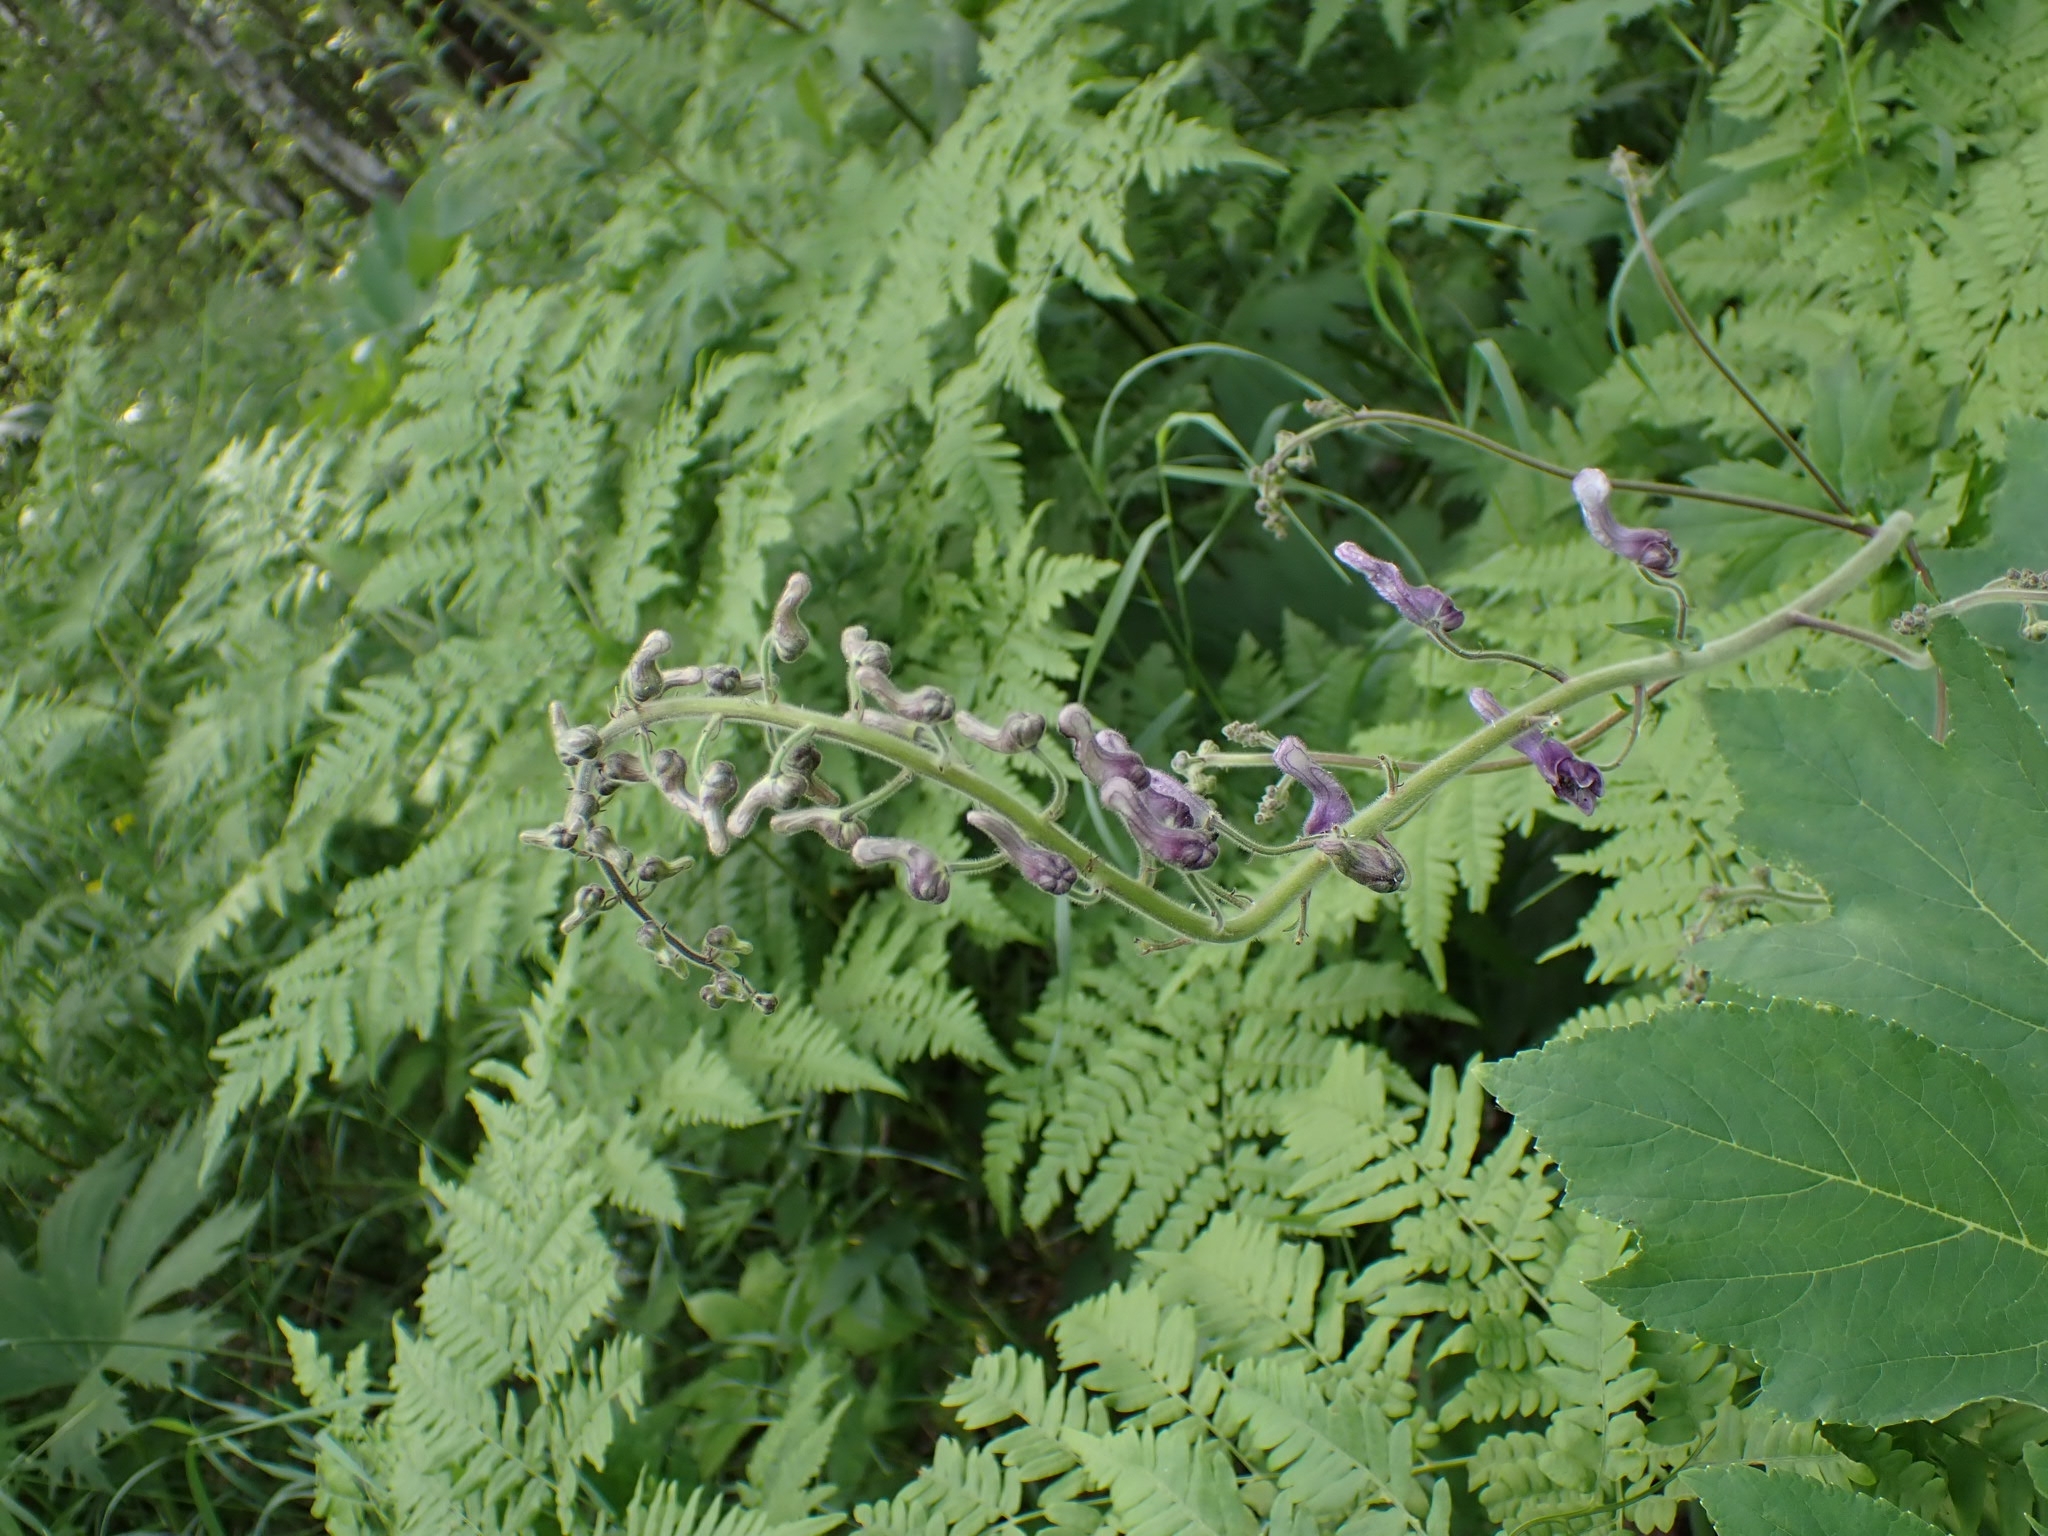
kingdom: Plantae
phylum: Tracheophyta
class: Magnoliopsida
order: Ranunculales
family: Ranunculaceae
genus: Aconitum
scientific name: Aconitum septentrionale
